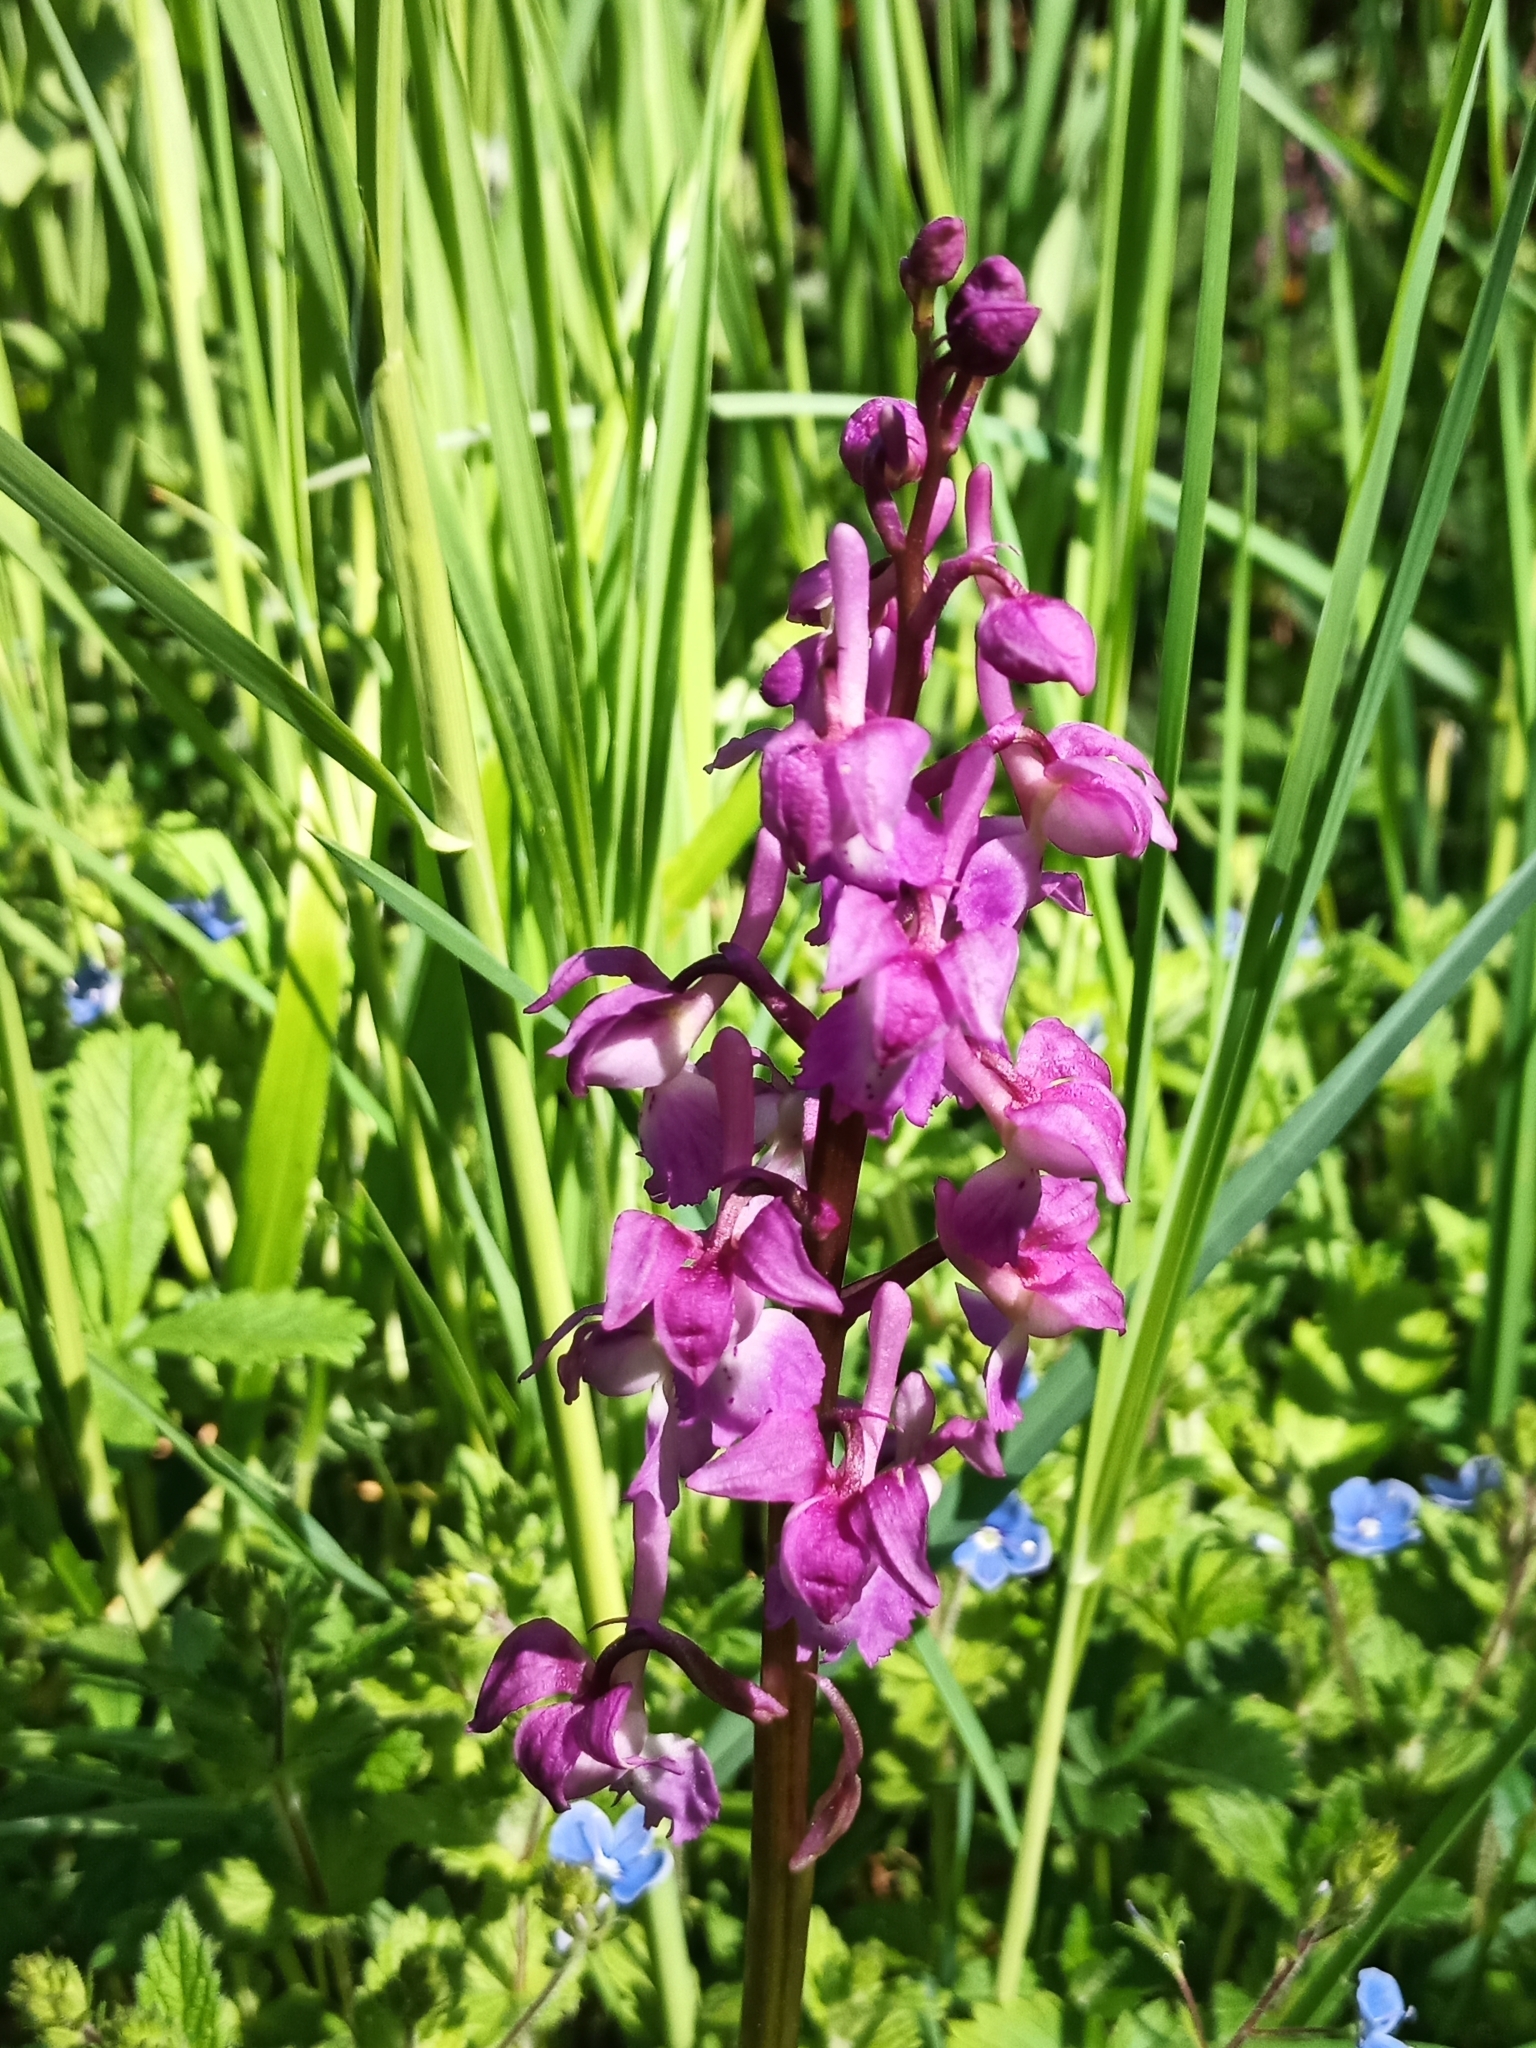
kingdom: Plantae
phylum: Tracheophyta
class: Liliopsida
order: Asparagales
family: Orchidaceae
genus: Orchis
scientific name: Orchis mascula
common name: Early-purple orchid
